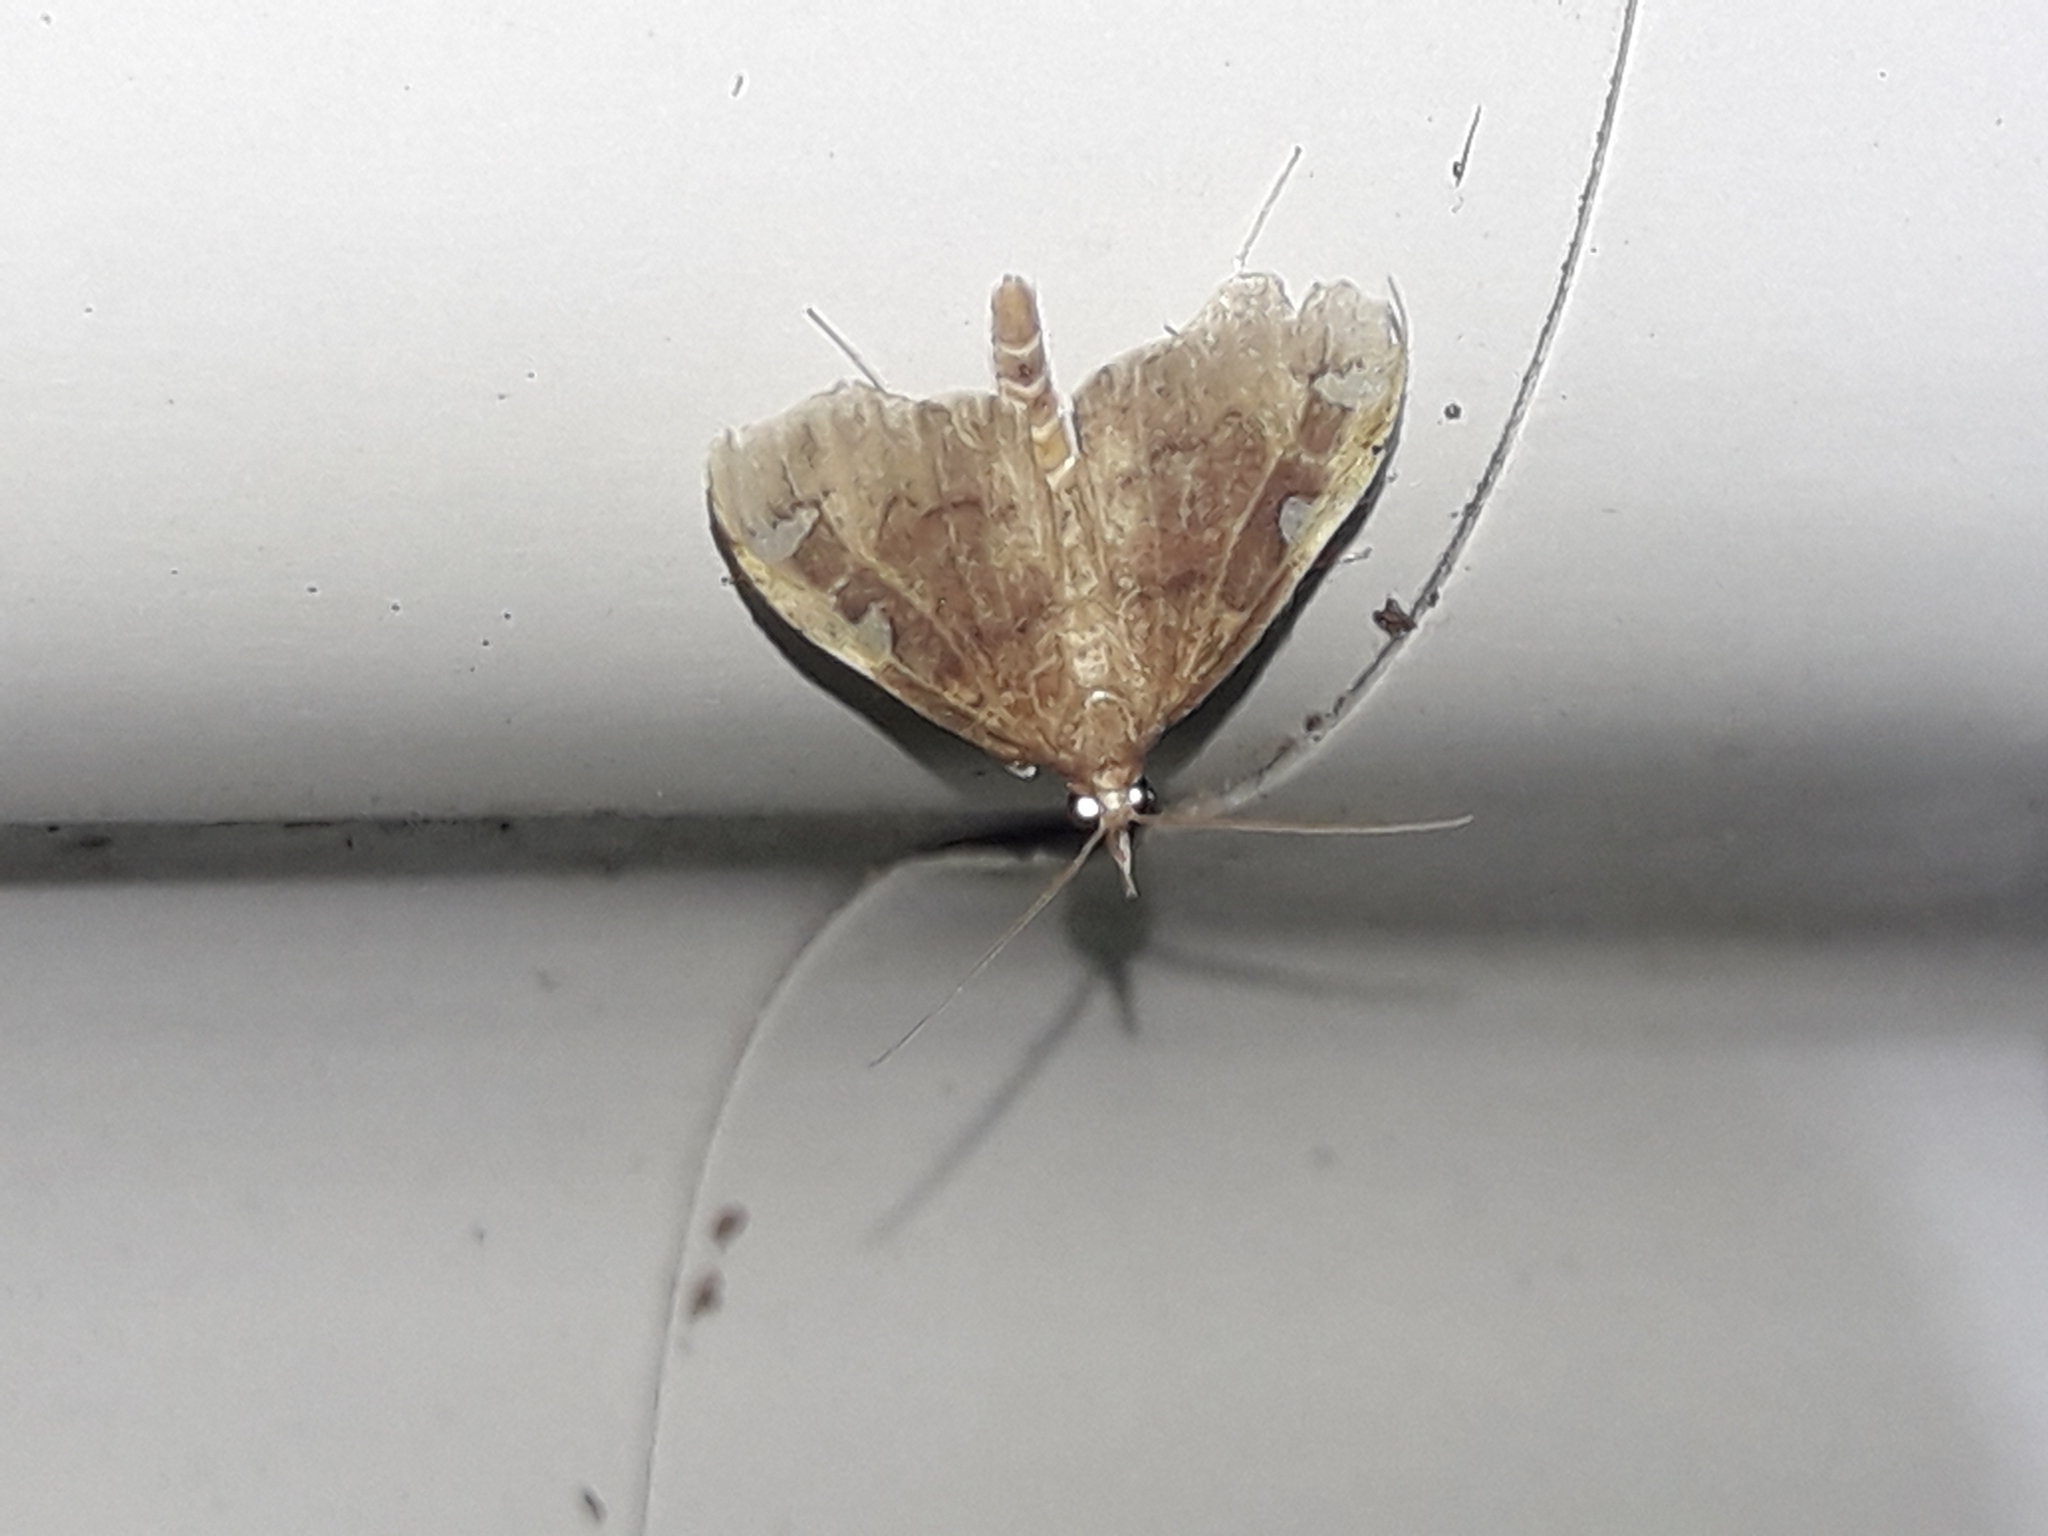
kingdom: Animalia
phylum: Arthropoda
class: Insecta
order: Lepidoptera
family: Crambidae
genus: Deana
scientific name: Deana hybreasalis
